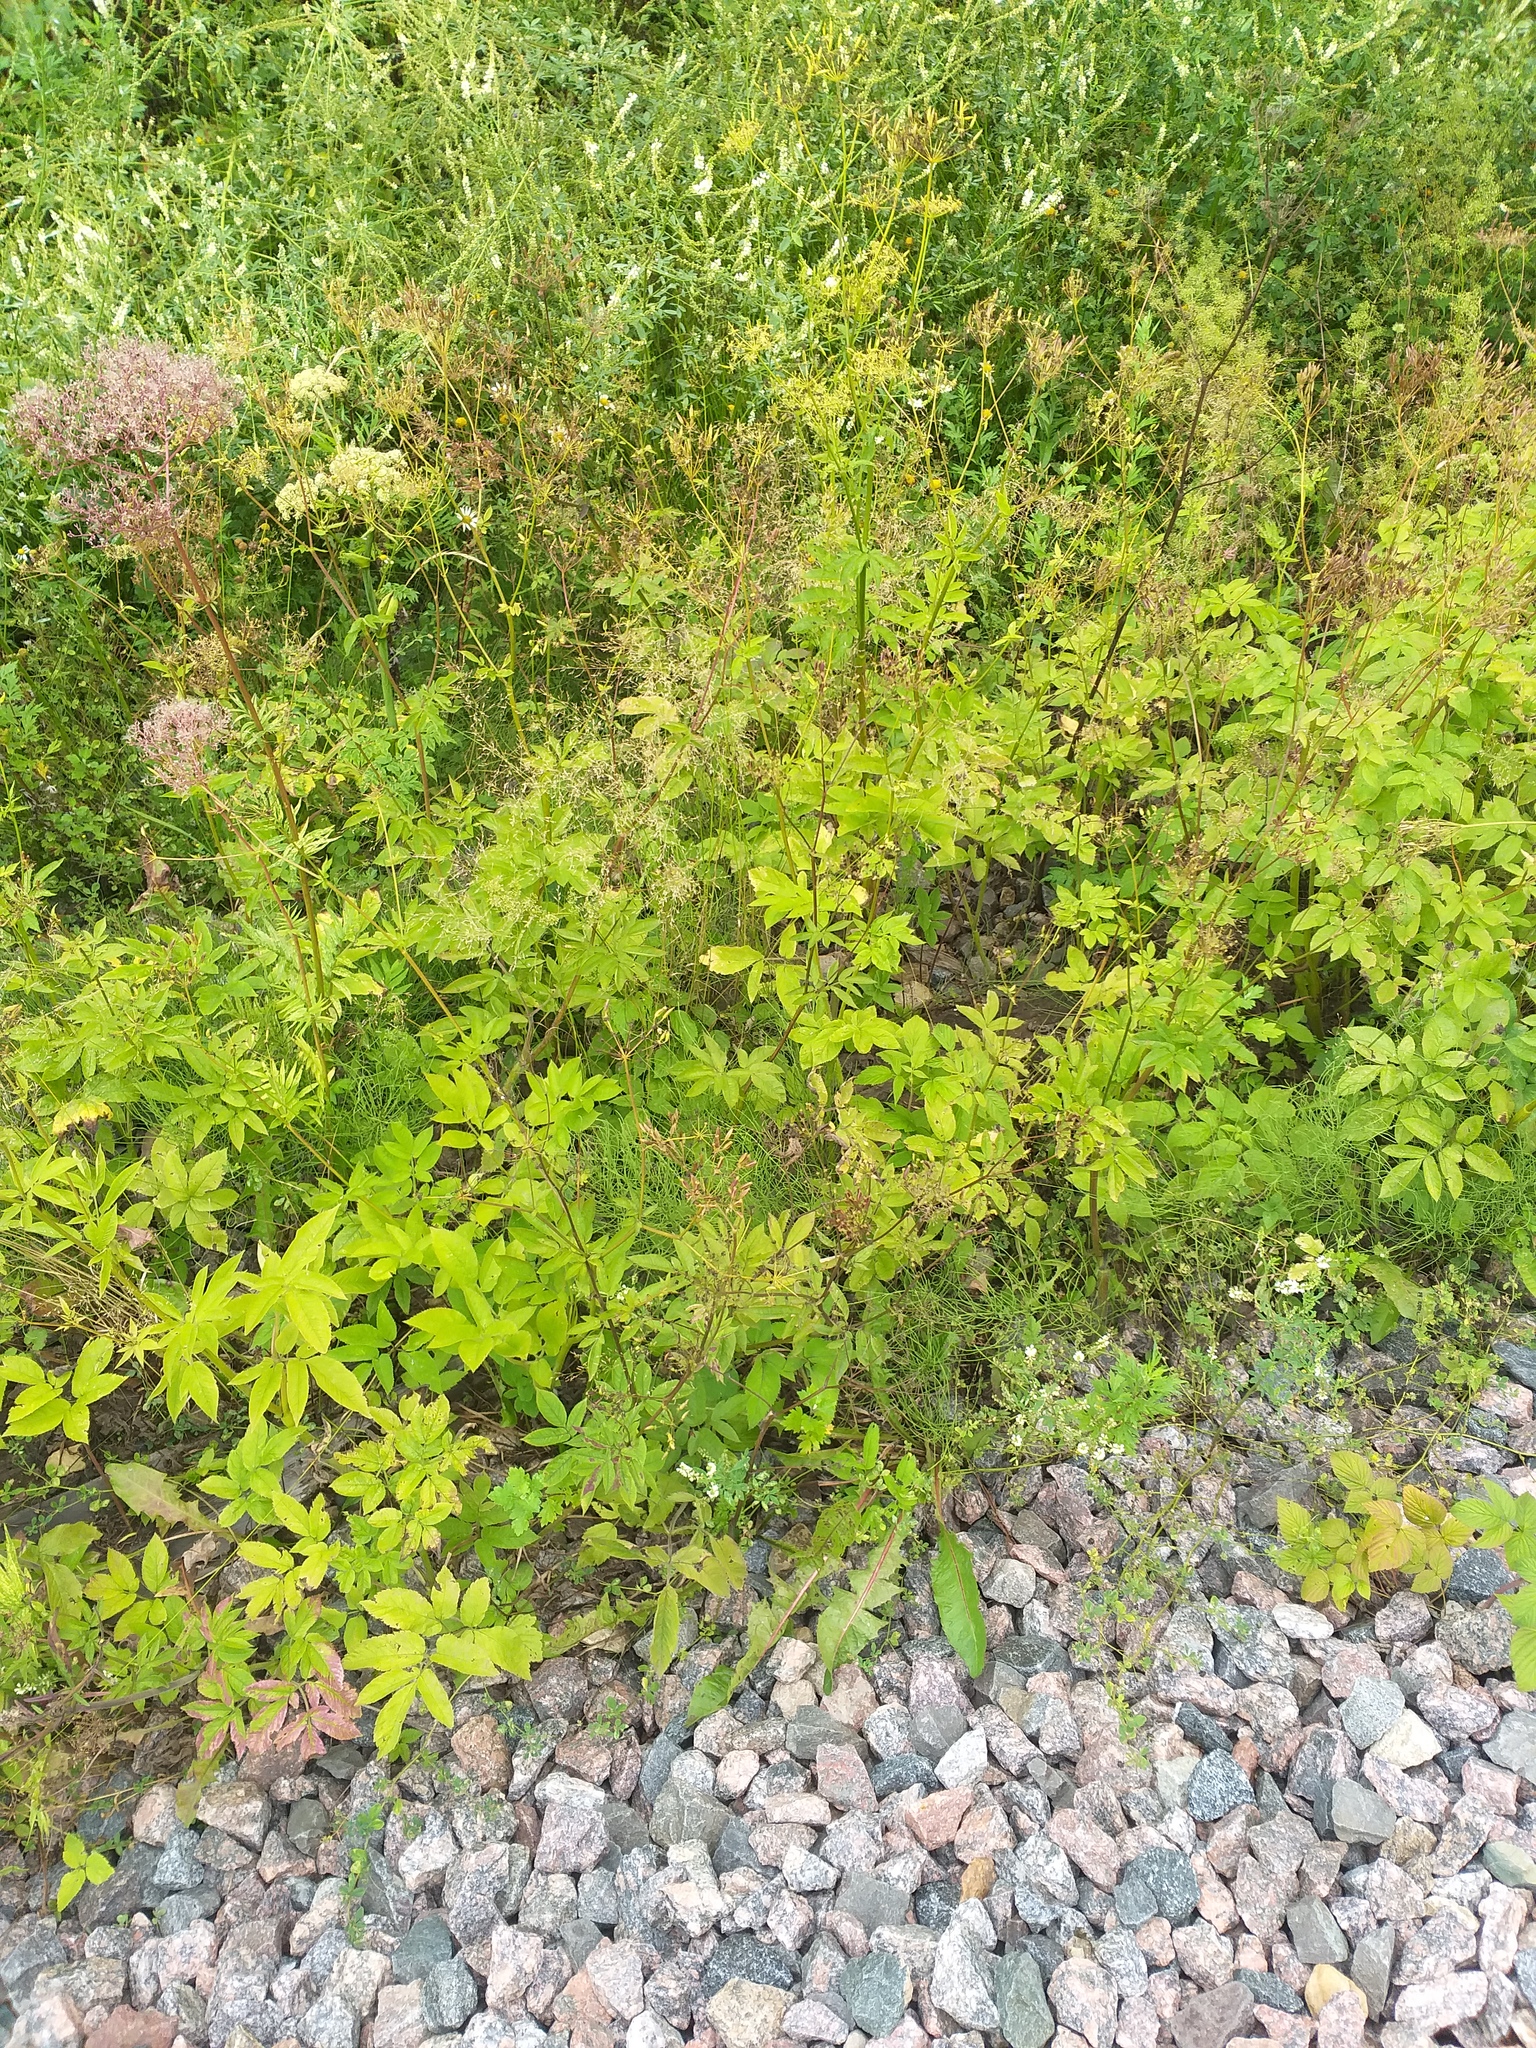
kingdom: Plantae
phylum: Tracheophyta
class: Magnoliopsida
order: Apiales
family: Apiaceae
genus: Chaerophyllum
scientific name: Chaerophyllum aromaticum
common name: Broadleaf chervil
